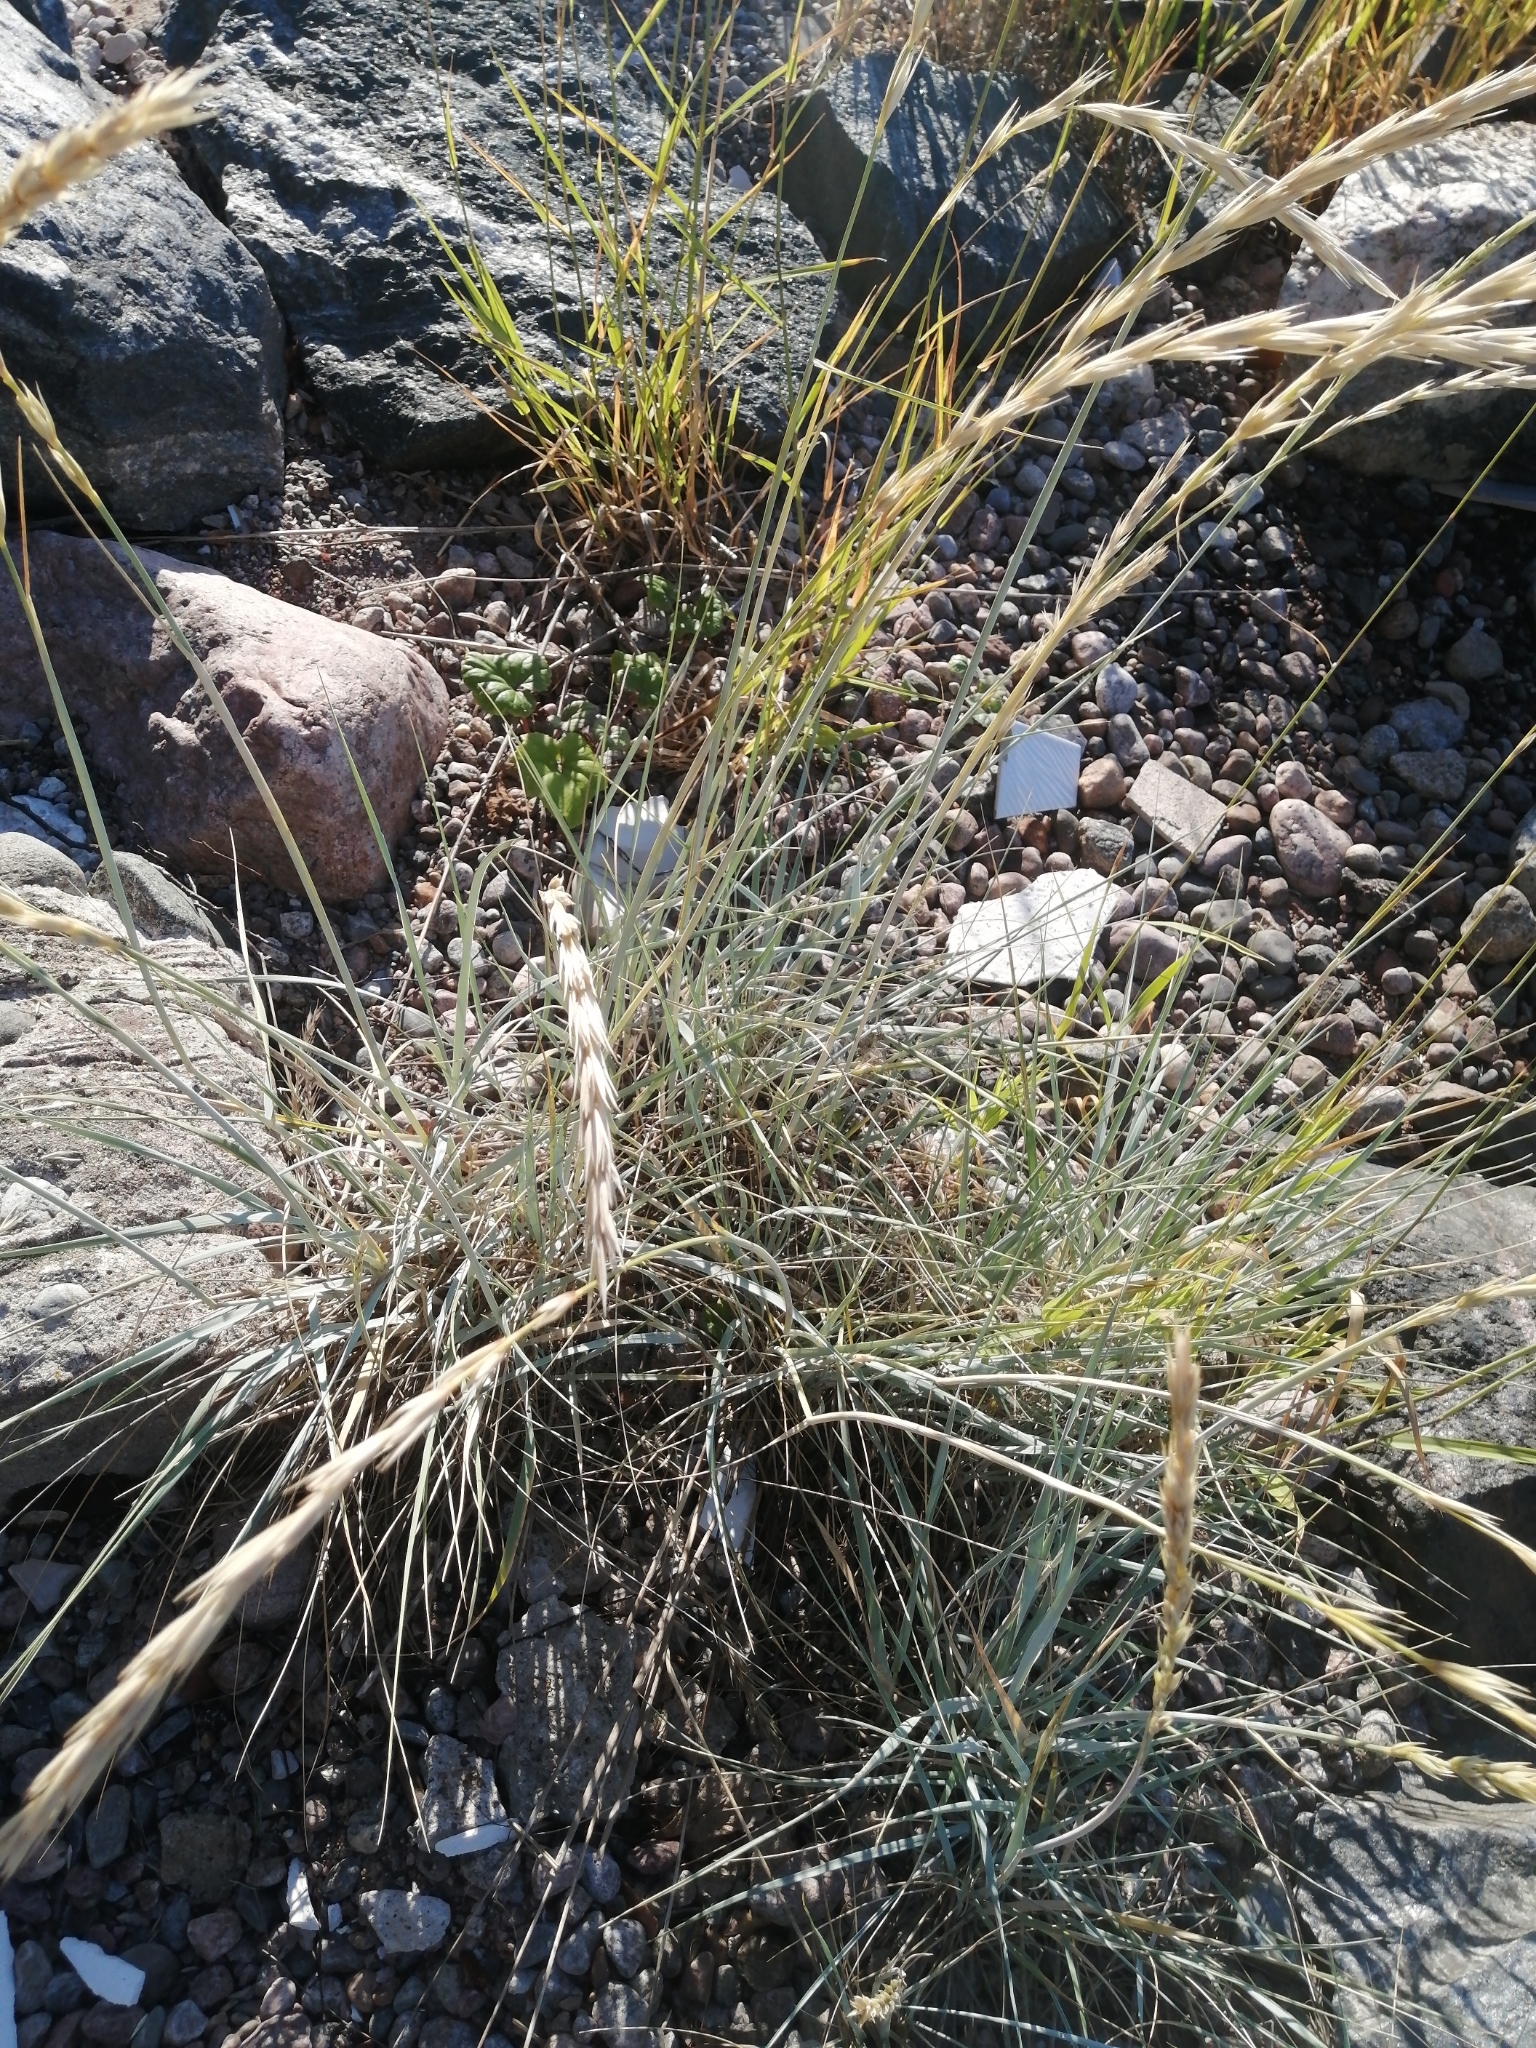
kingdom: Plantae
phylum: Tracheophyta
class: Liliopsida
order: Poales
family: Poaceae
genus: Leymus
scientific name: Leymus arenarius
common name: Lyme-grass
